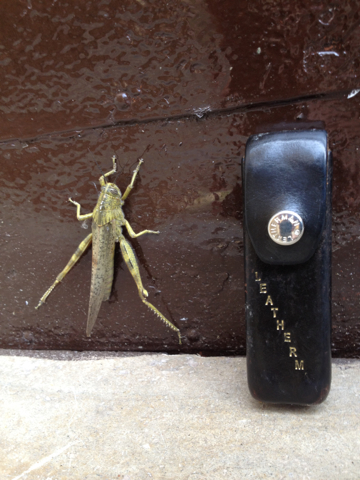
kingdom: Animalia
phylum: Arthropoda
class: Insecta
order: Orthoptera
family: Acrididae
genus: Anacridium
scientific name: Anacridium aegyptium
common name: Egyptian grasshopper
